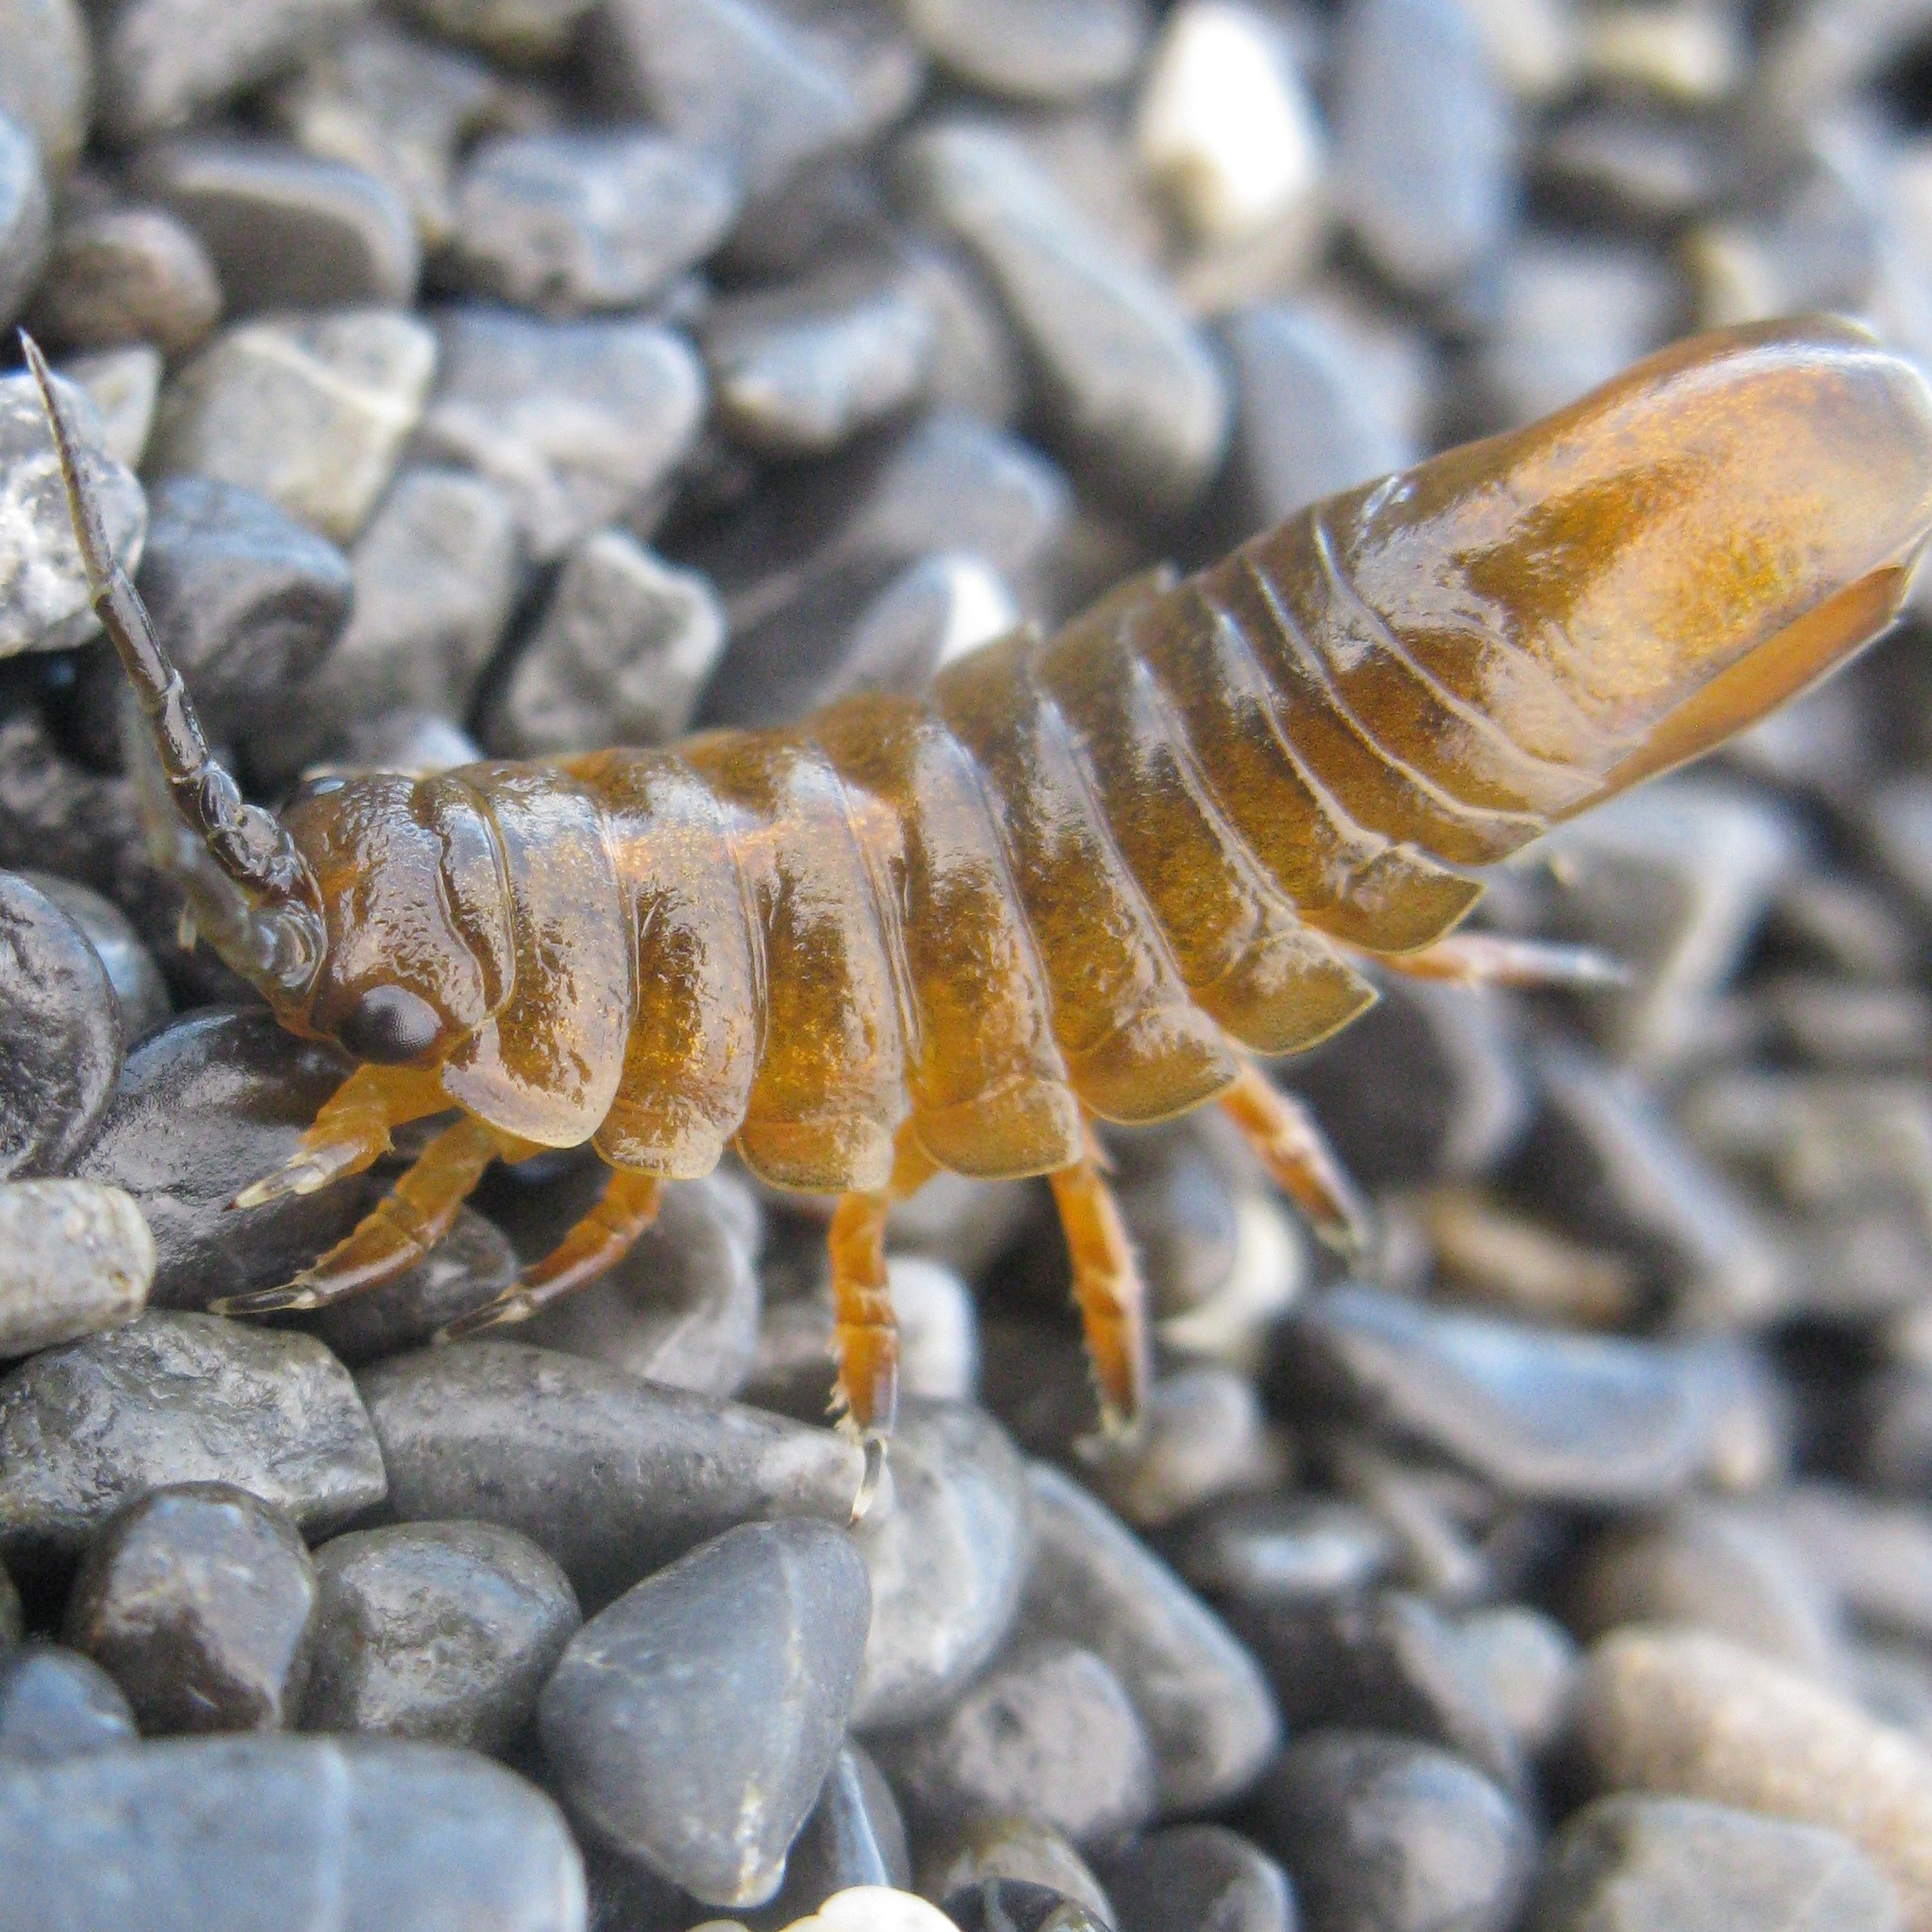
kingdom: Animalia
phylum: Arthropoda
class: Malacostraca
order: Isopoda
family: Idoteidae
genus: Idotea
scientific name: Idotea metallica
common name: Metallic marine isopod
